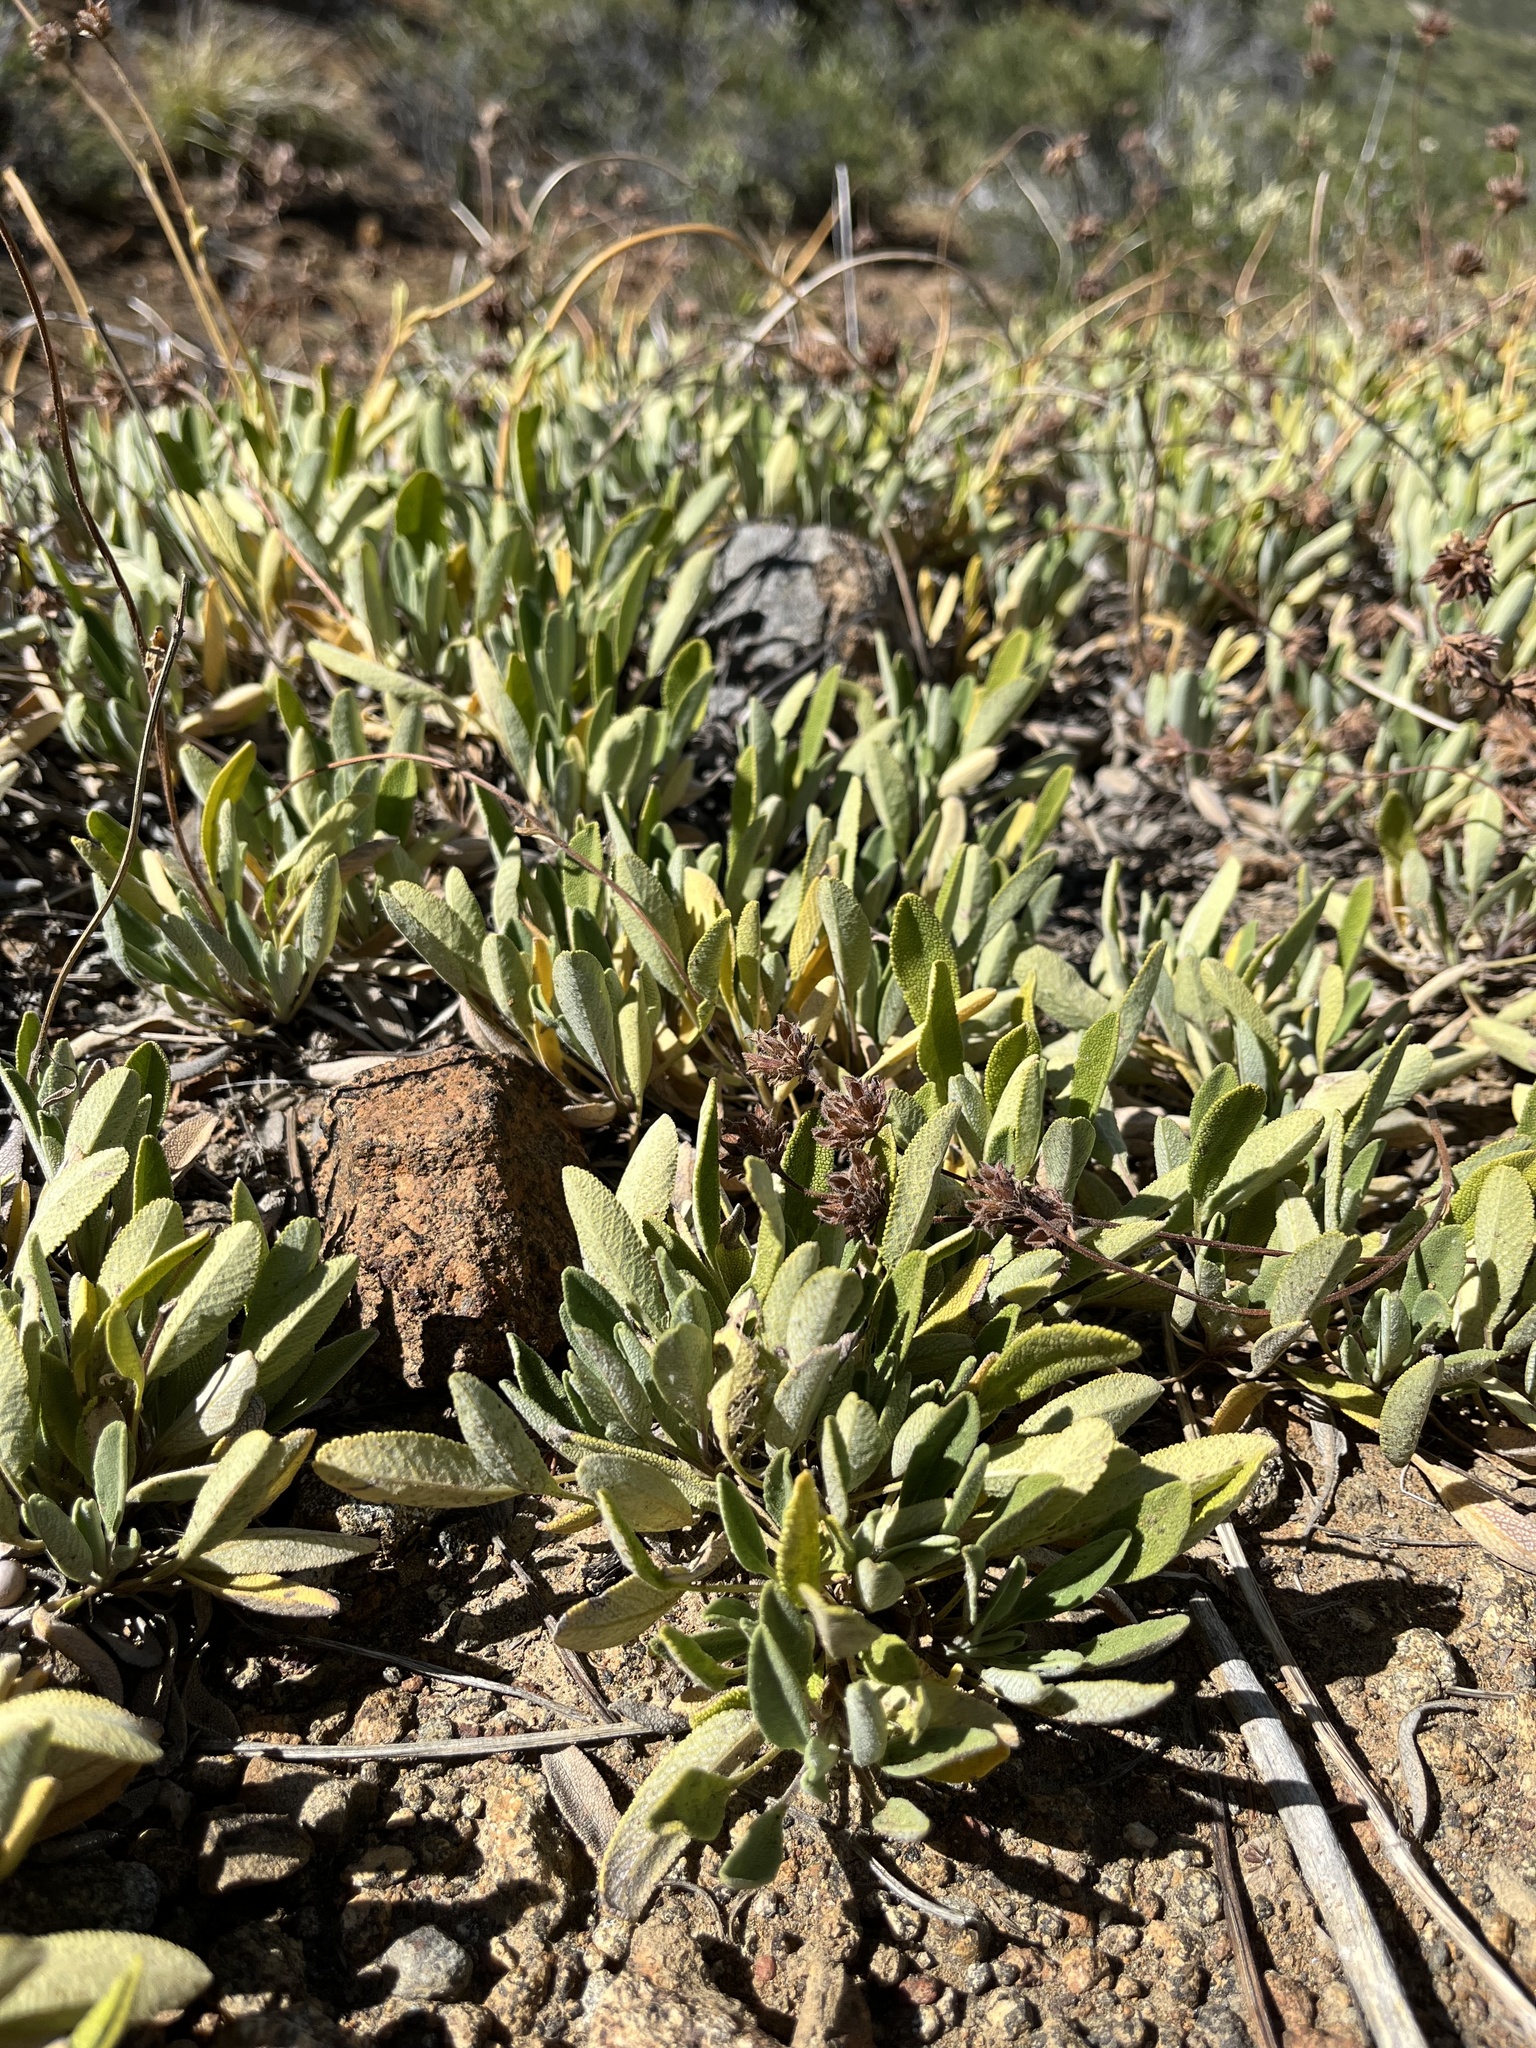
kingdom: Plantae
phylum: Tracheophyta
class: Magnoliopsida
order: Lamiales
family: Lamiaceae
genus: Salvia
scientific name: Salvia sonomensis
